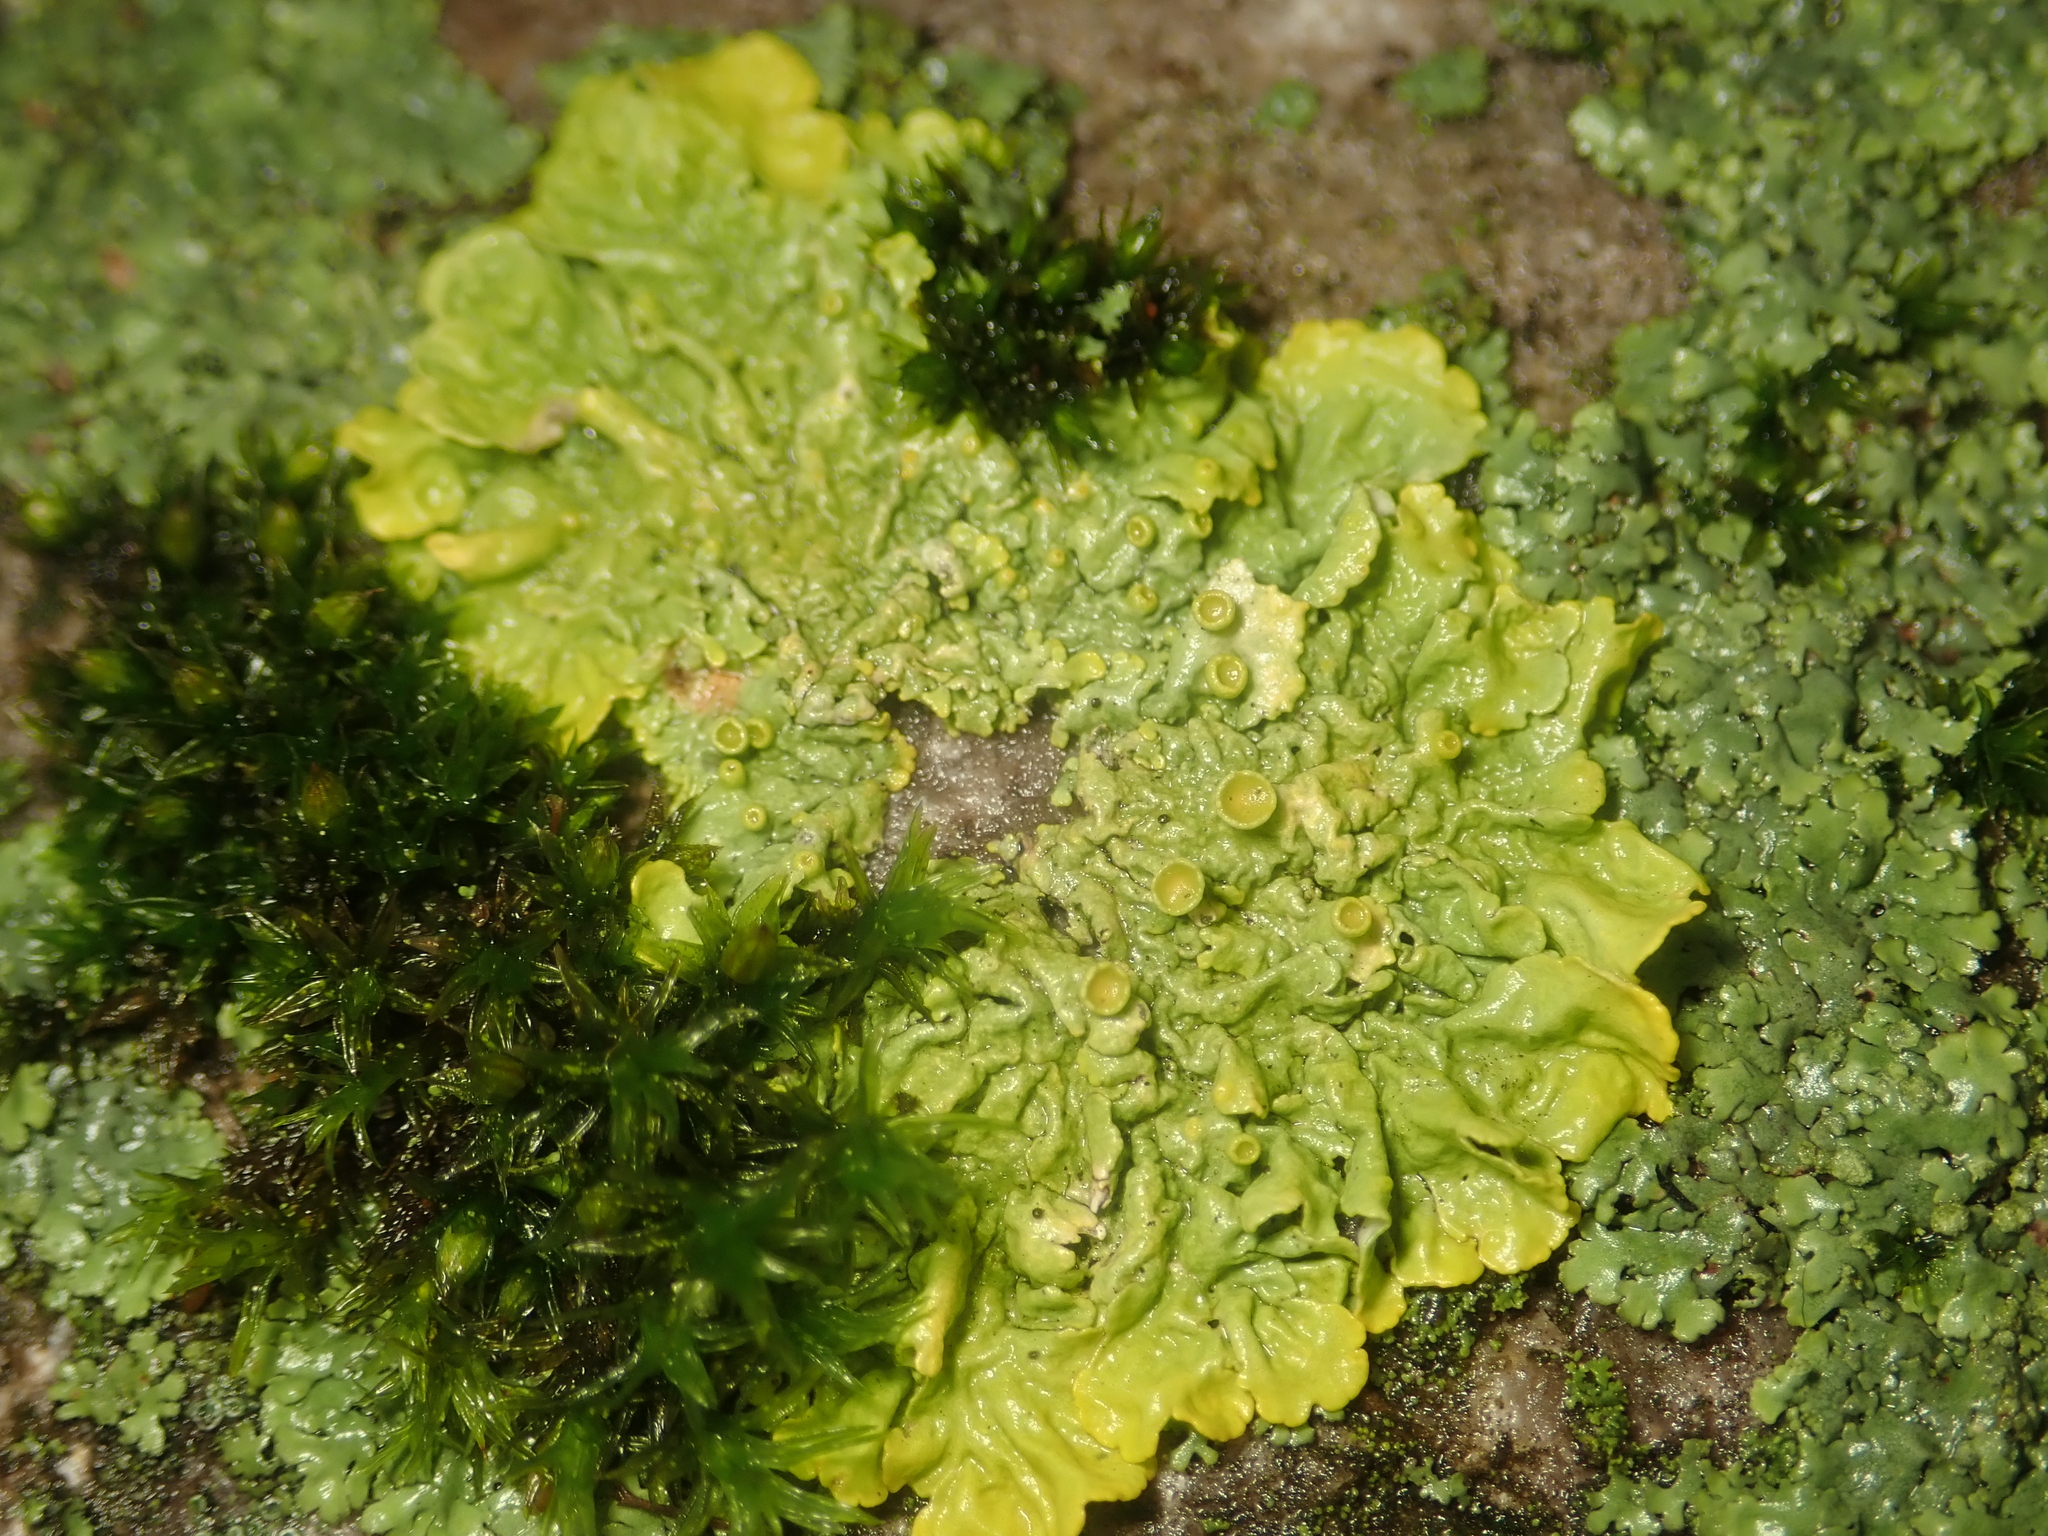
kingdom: Fungi
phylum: Ascomycota
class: Lecanoromycetes
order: Teloschistales
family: Teloschistaceae
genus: Xanthoria
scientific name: Xanthoria parietina
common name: Common orange lichen
